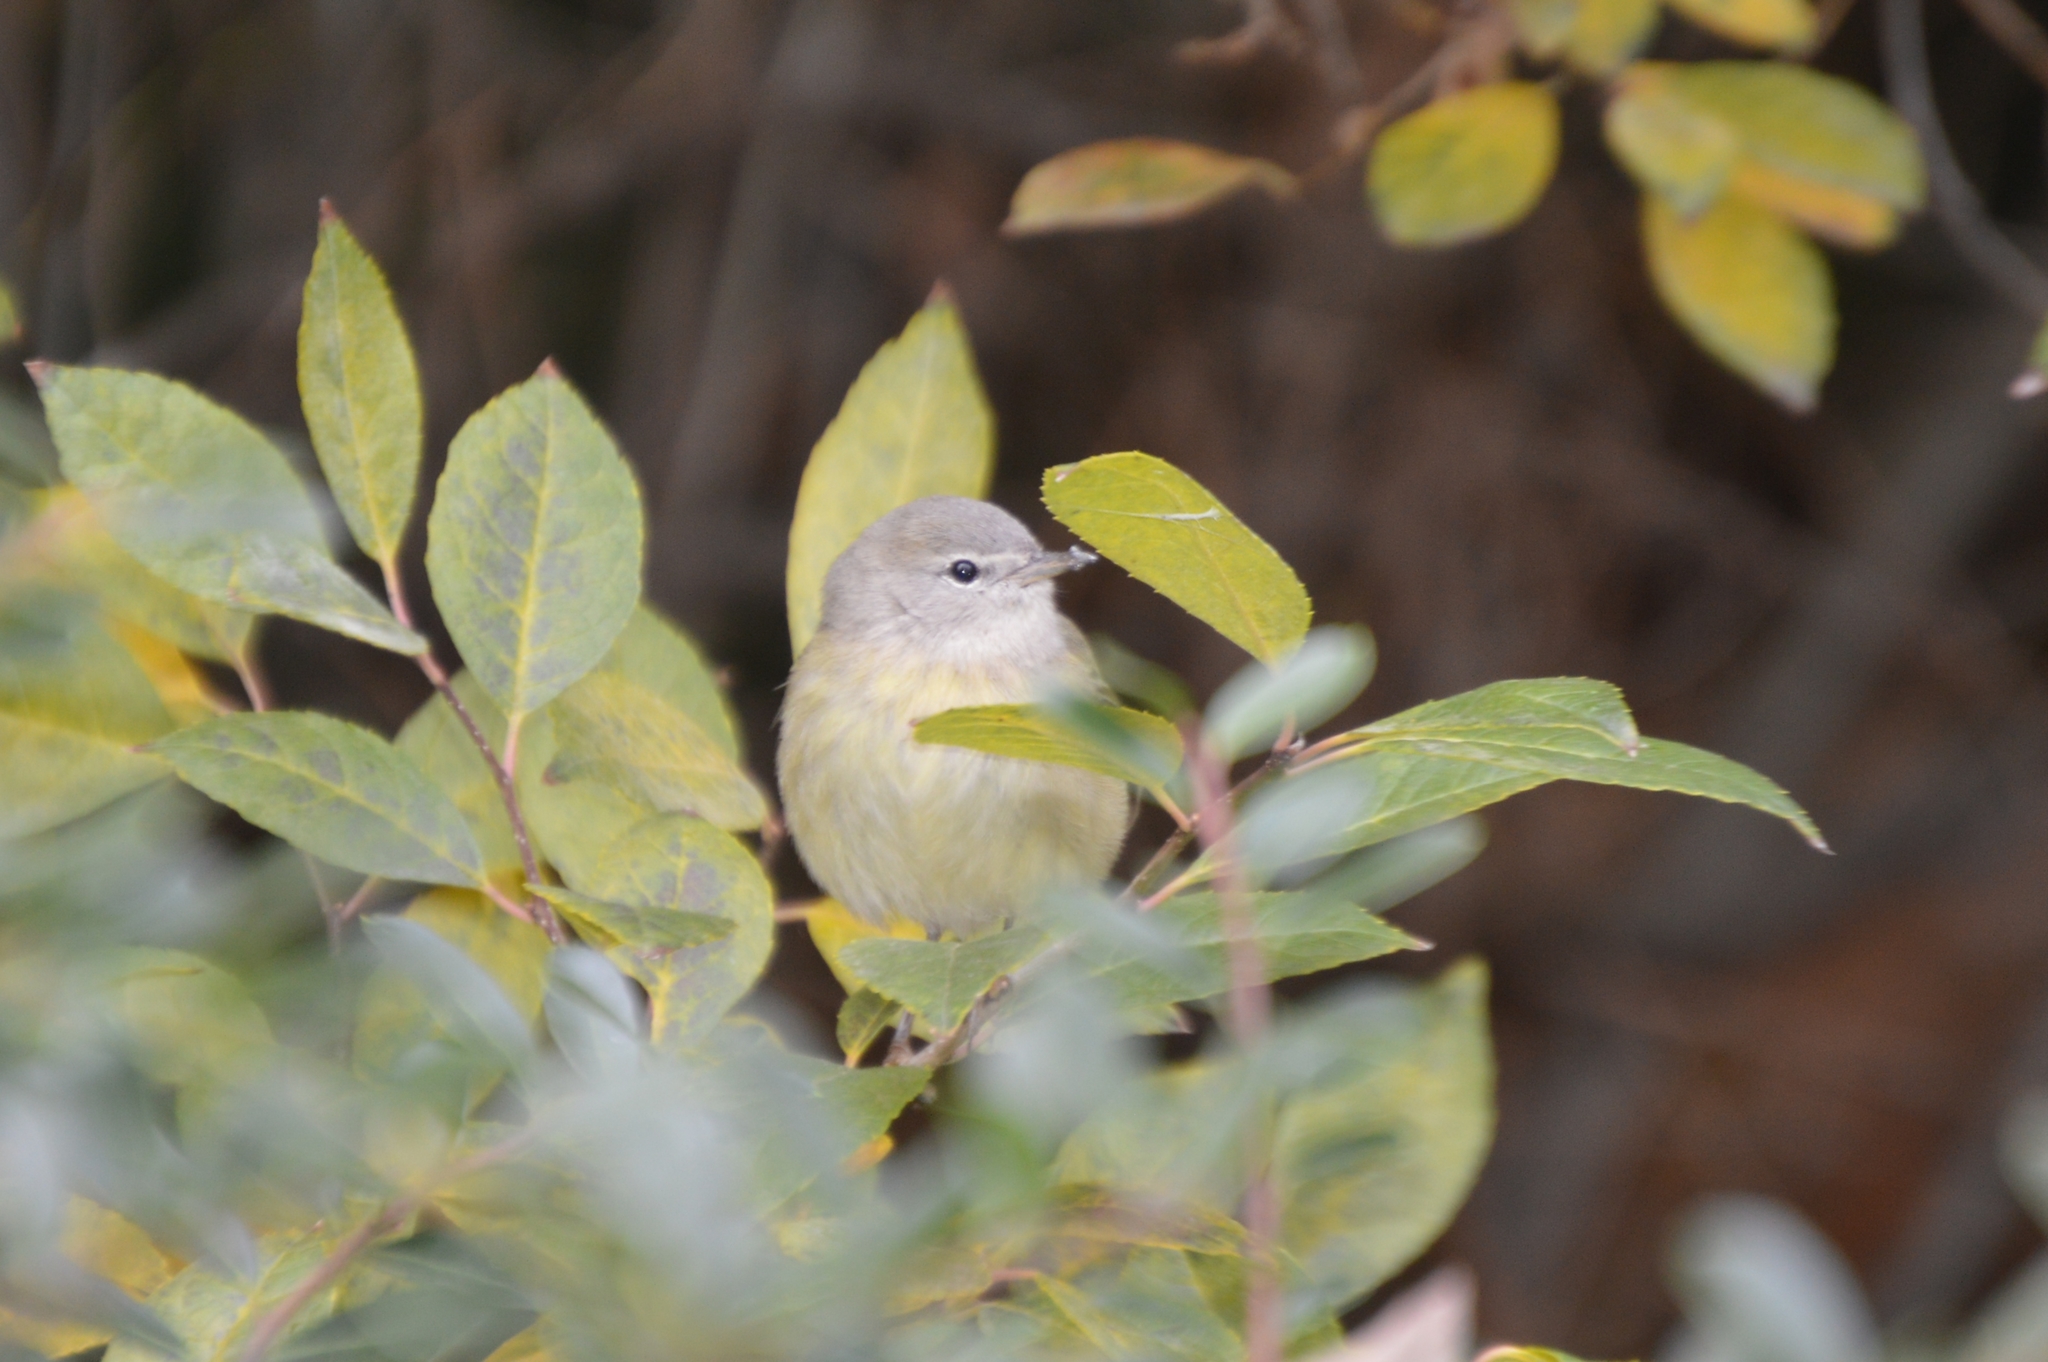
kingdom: Animalia
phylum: Chordata
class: Aves
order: Passeriformes
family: Parulidae
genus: Leiothlypis
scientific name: Leiothlypis celata
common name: Orange-crowned warbler
